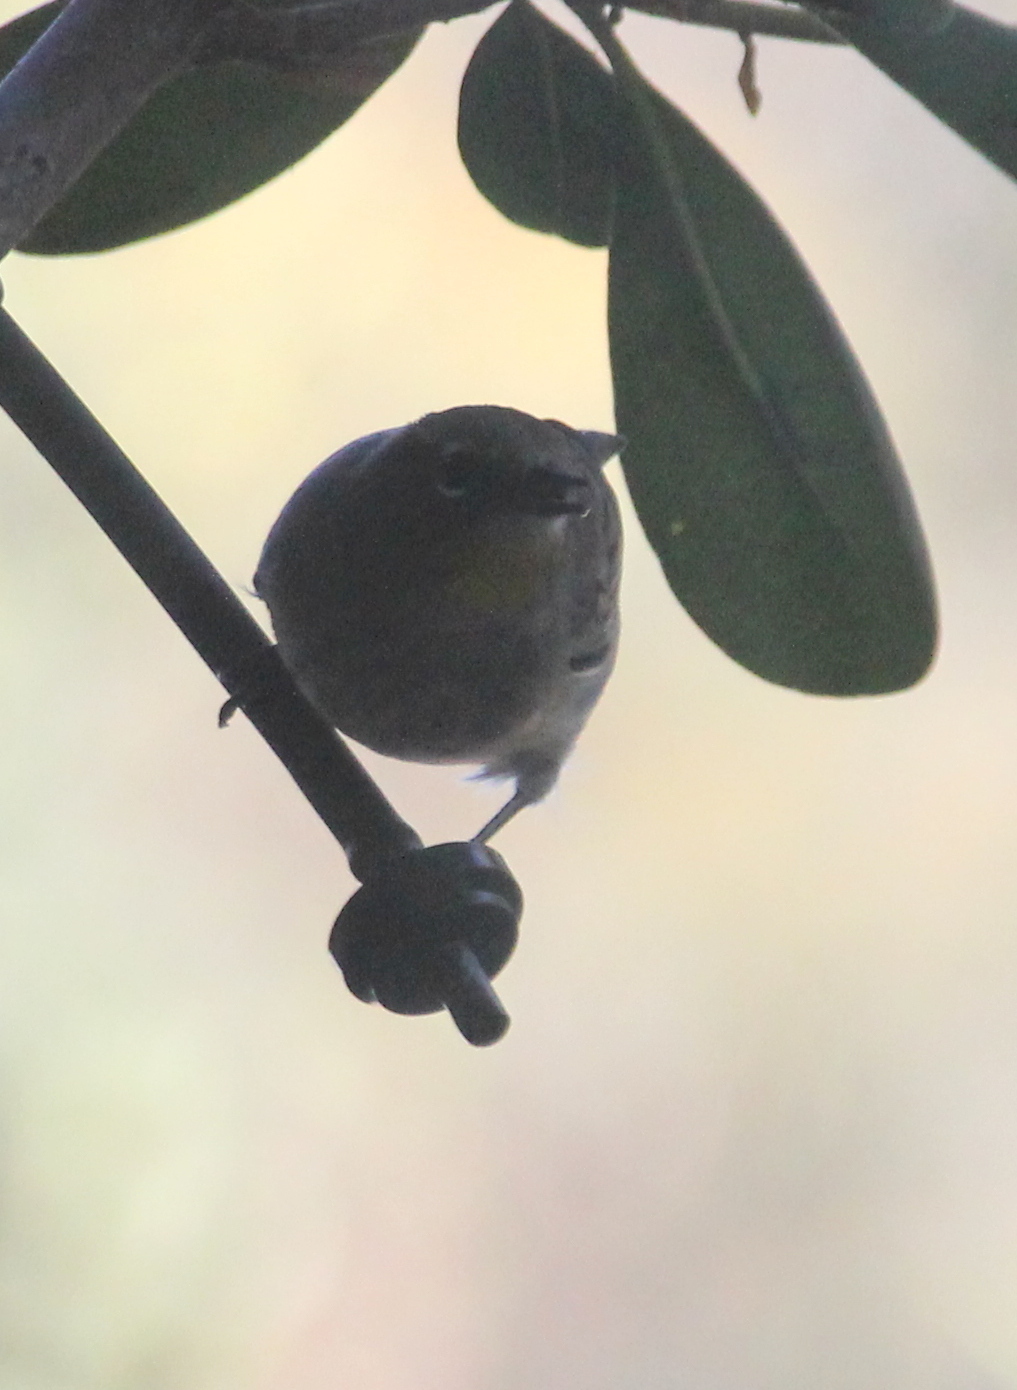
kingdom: Animalia
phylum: Chordata
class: Aves
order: Passeriformes
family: Parulidae
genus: Setophaga
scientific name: Setophaga auduboni
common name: Audubon's warbler
